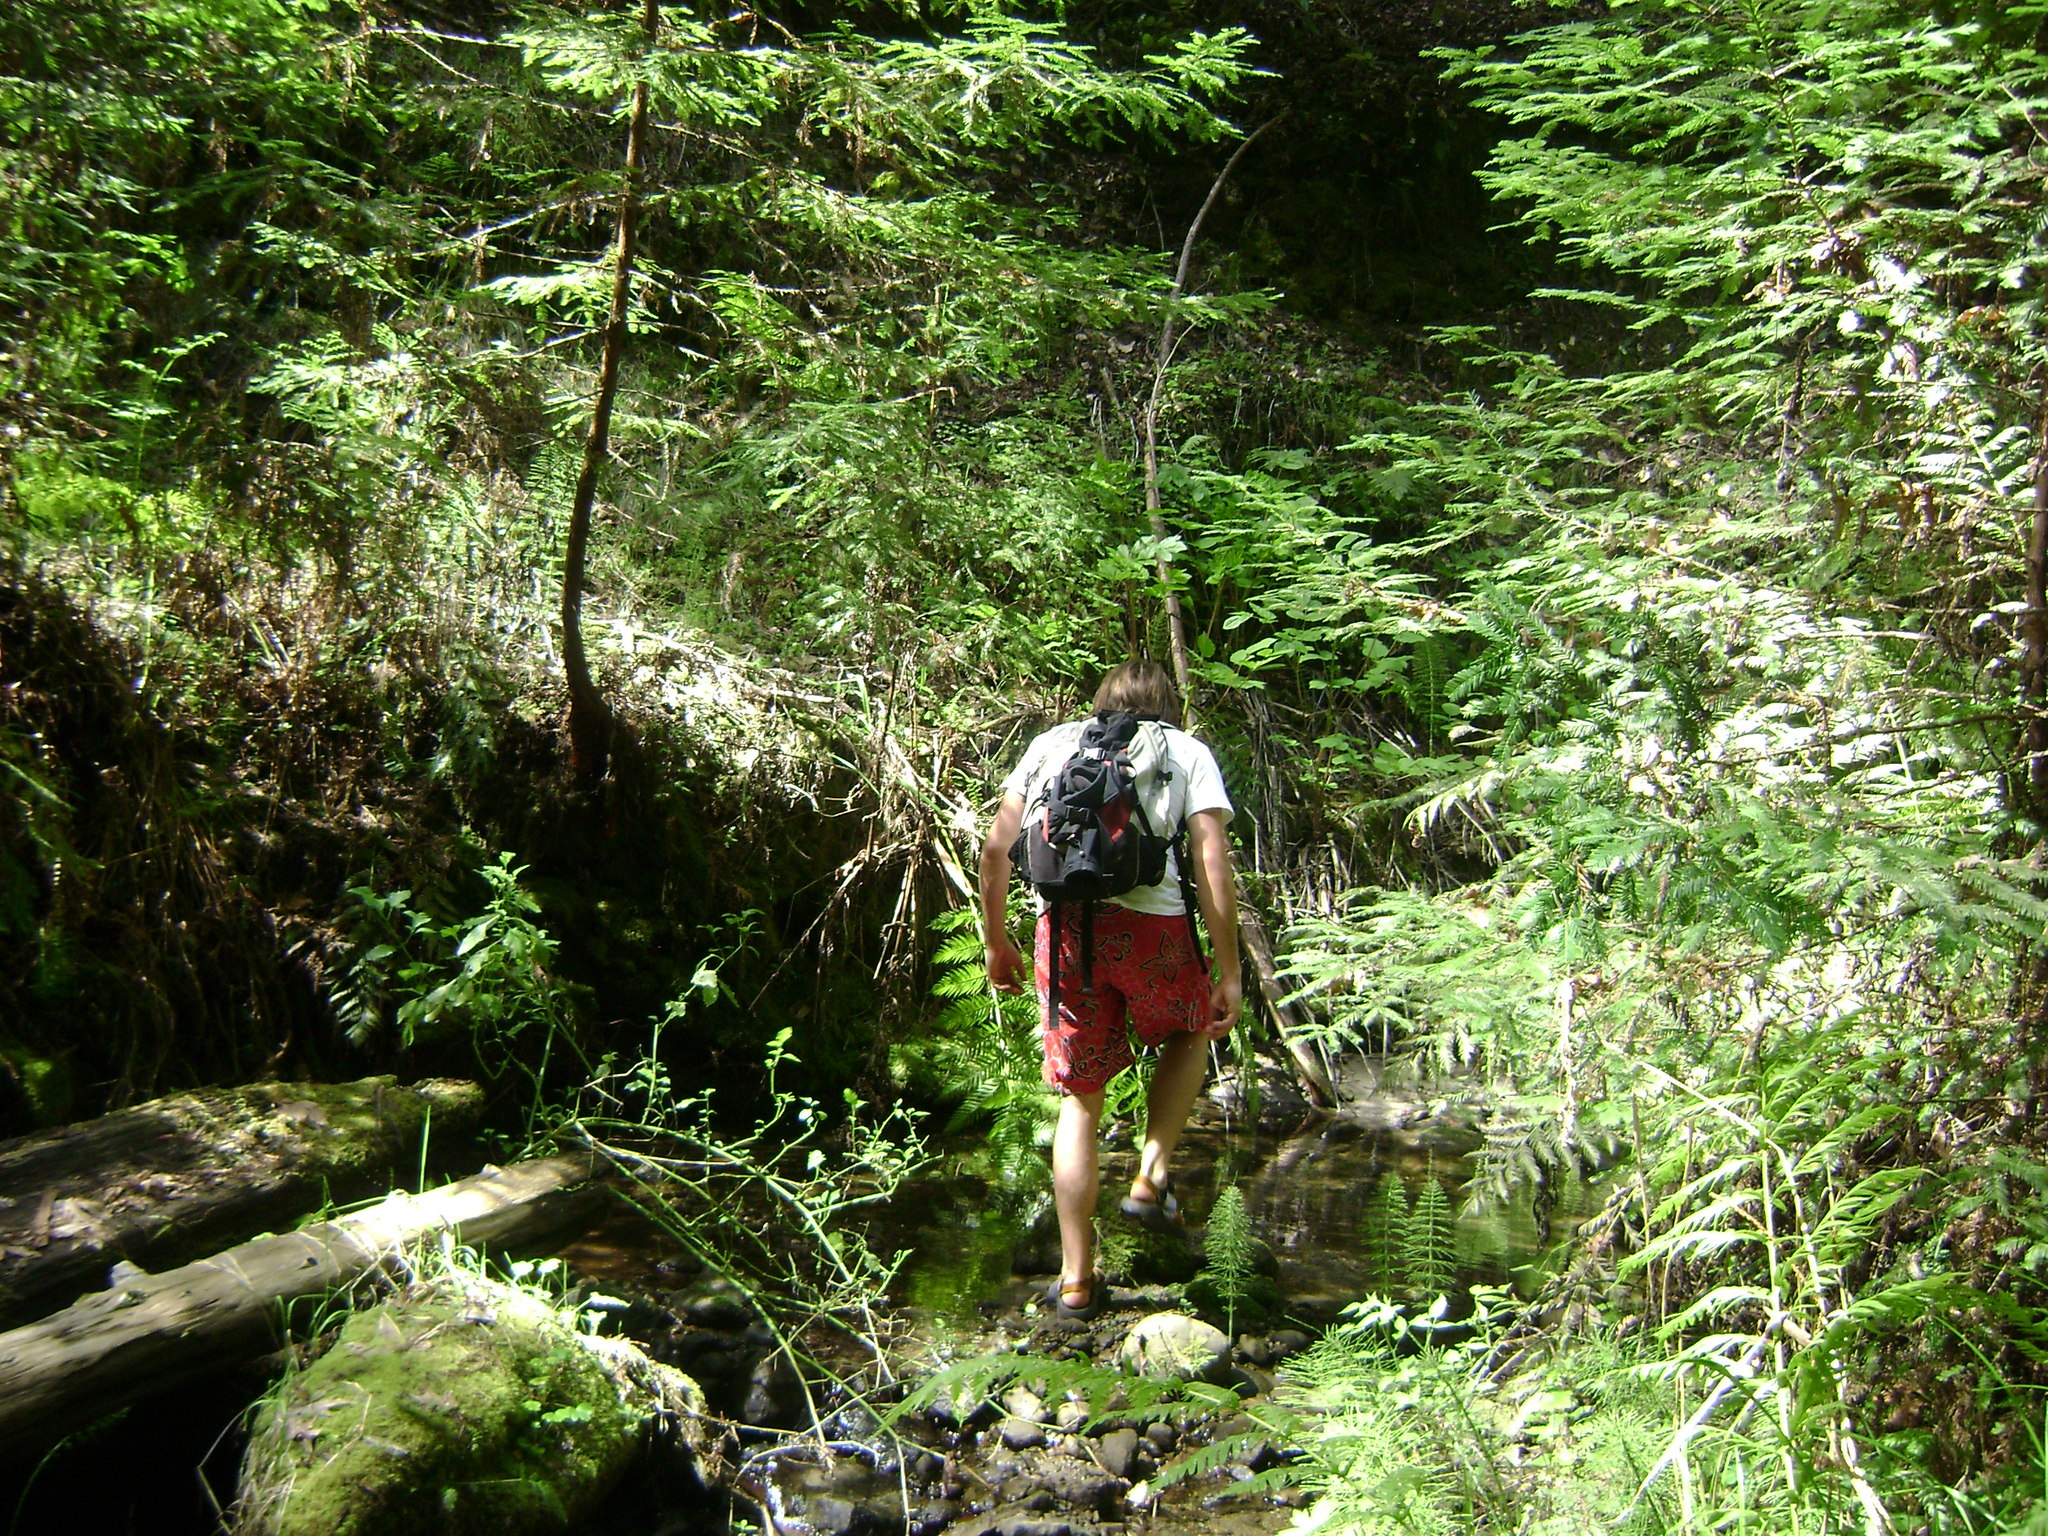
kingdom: Plantae
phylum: Tracheophyta
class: Polypodiopsida
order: Polypodiales
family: Blechnaceae
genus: Woodwardia
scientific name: Woodwardia fimbriata
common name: Giant chain fern
